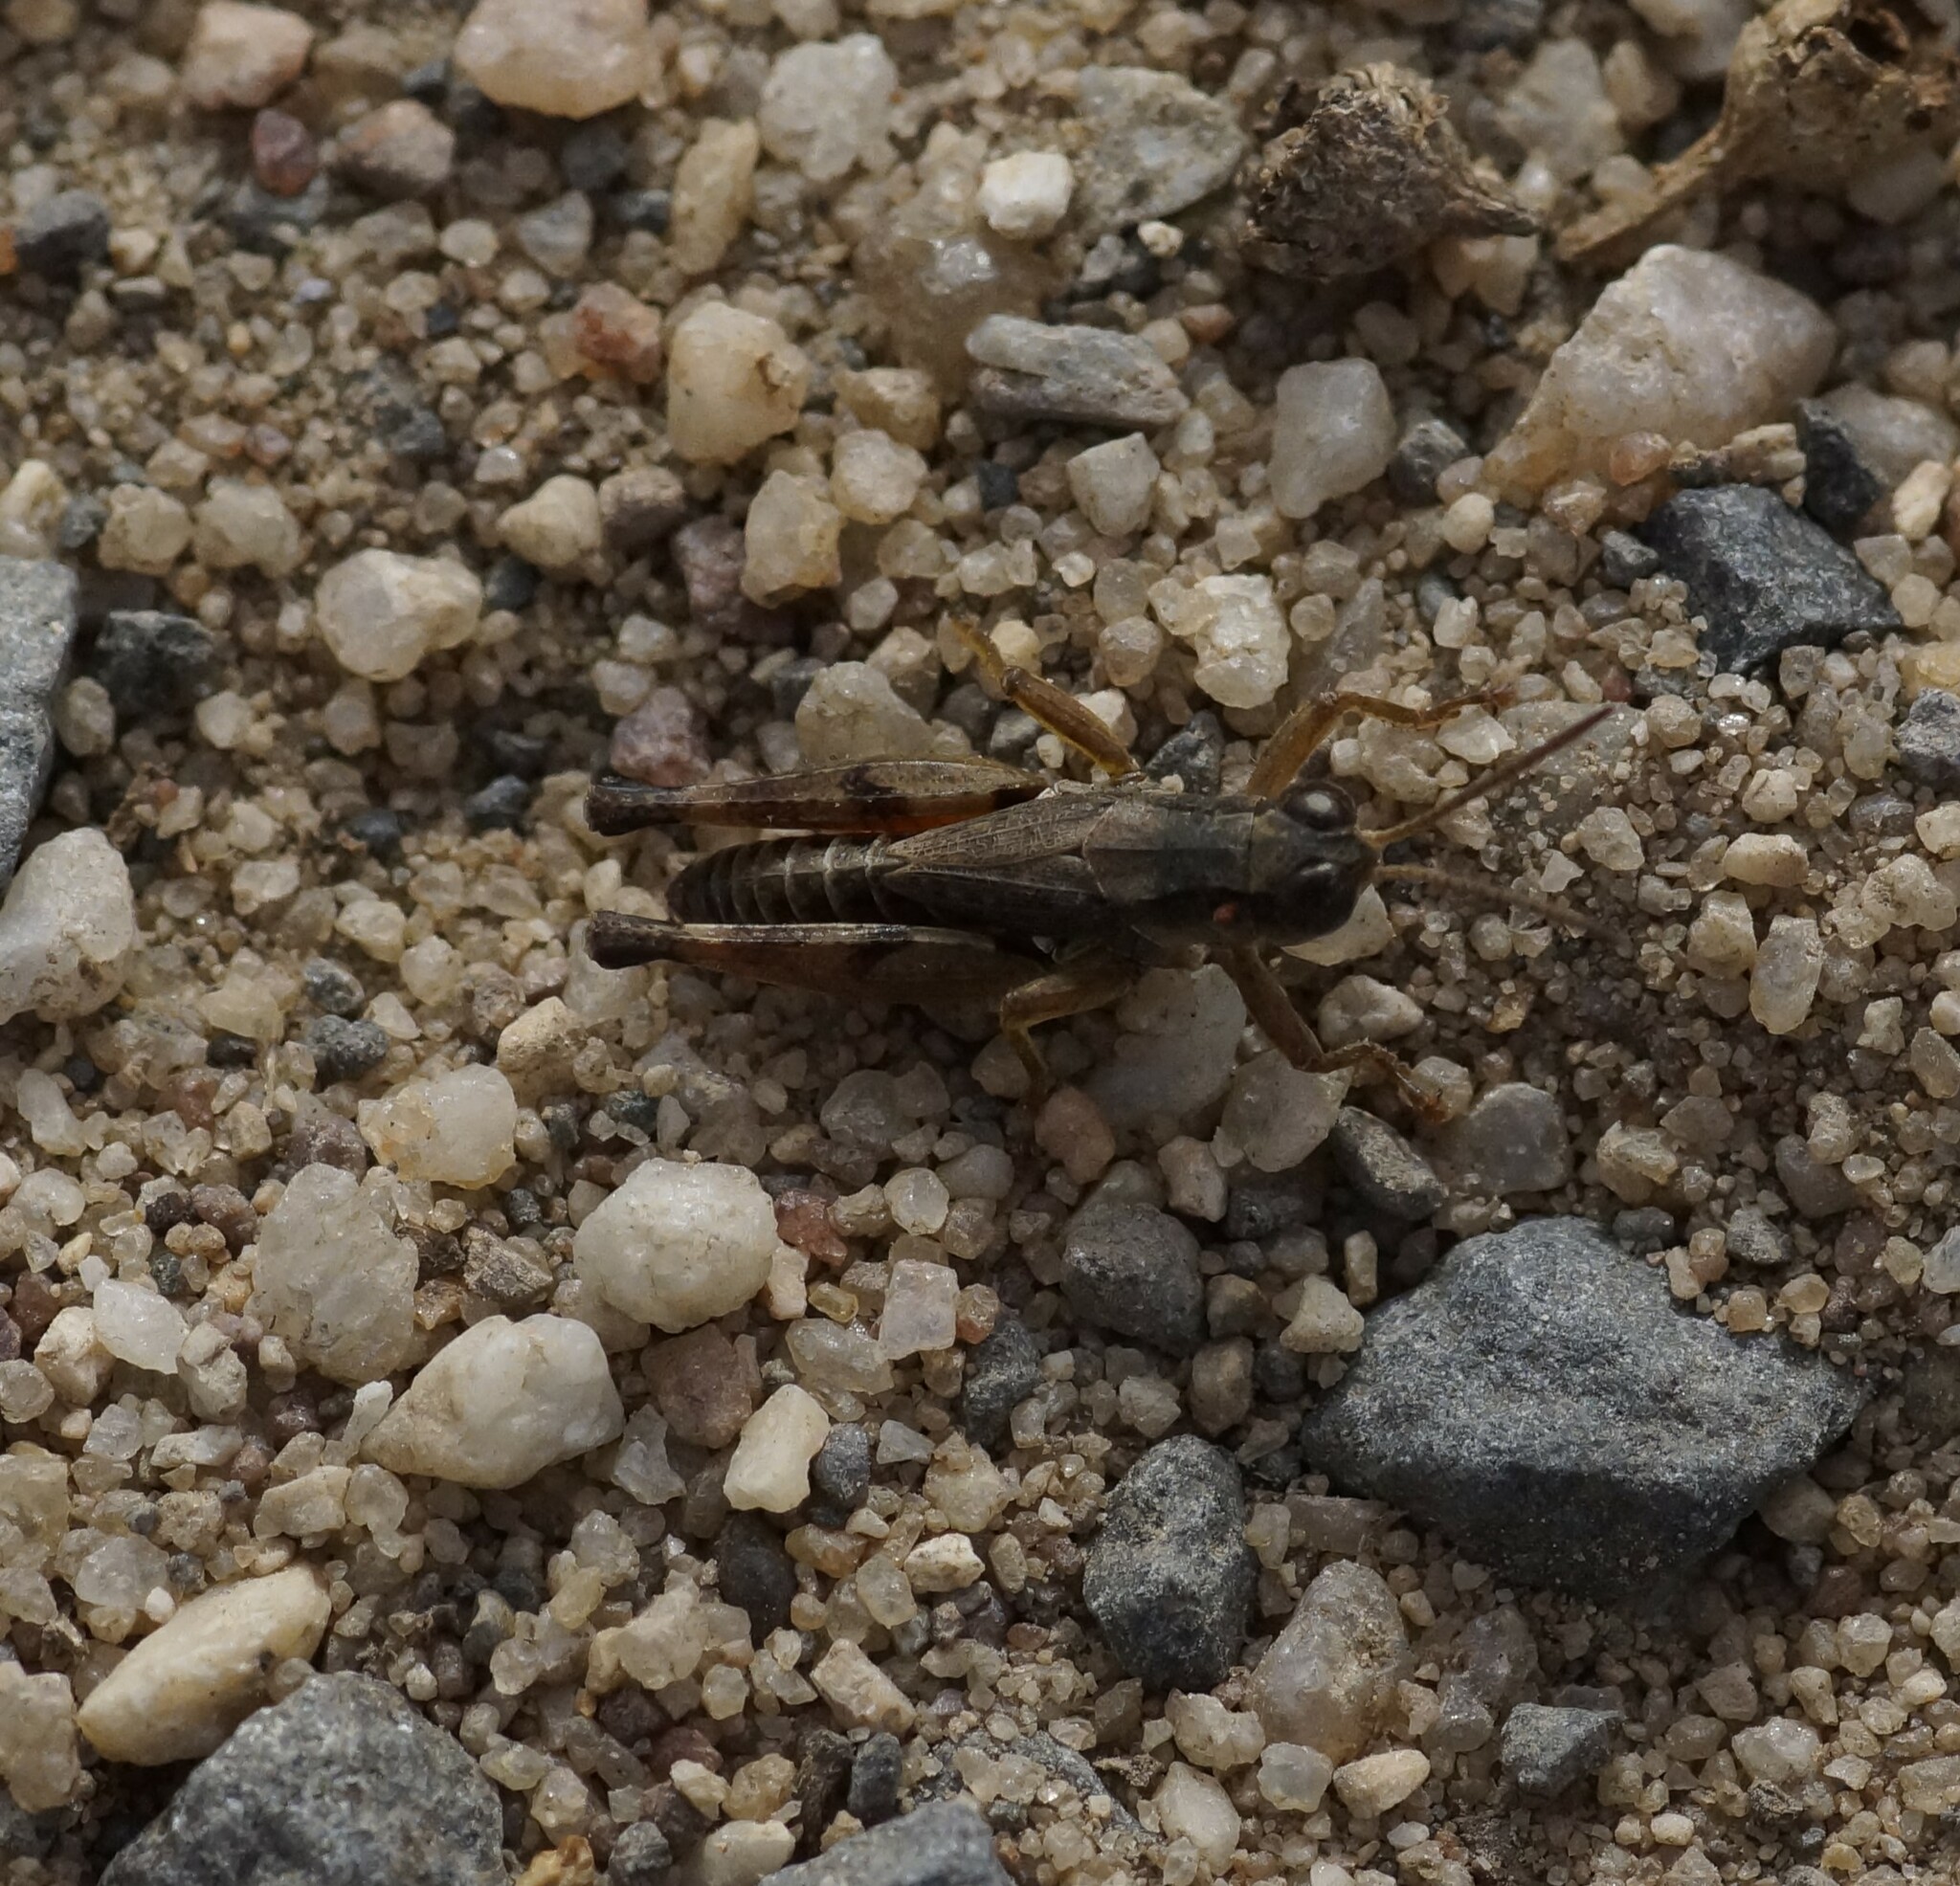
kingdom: Animalia
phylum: Arthropoda
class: Insecta
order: Orthoptera
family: Acrididae
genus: Phaulacridium
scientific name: Phaulacridium vittatum
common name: Wingless grasshopper
